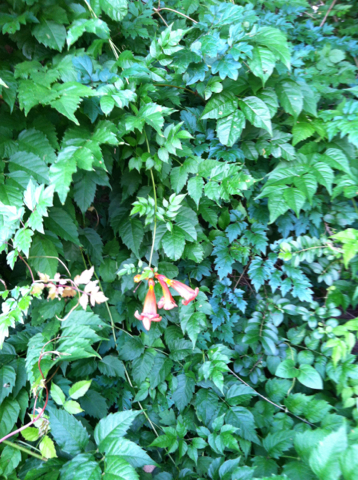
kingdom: Plantae
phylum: Tracheophyta
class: Magnoliopsida
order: Lamiales
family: Bignoniaceae
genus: Campsis
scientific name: Campsis radicans
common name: Trumpet-creeper
